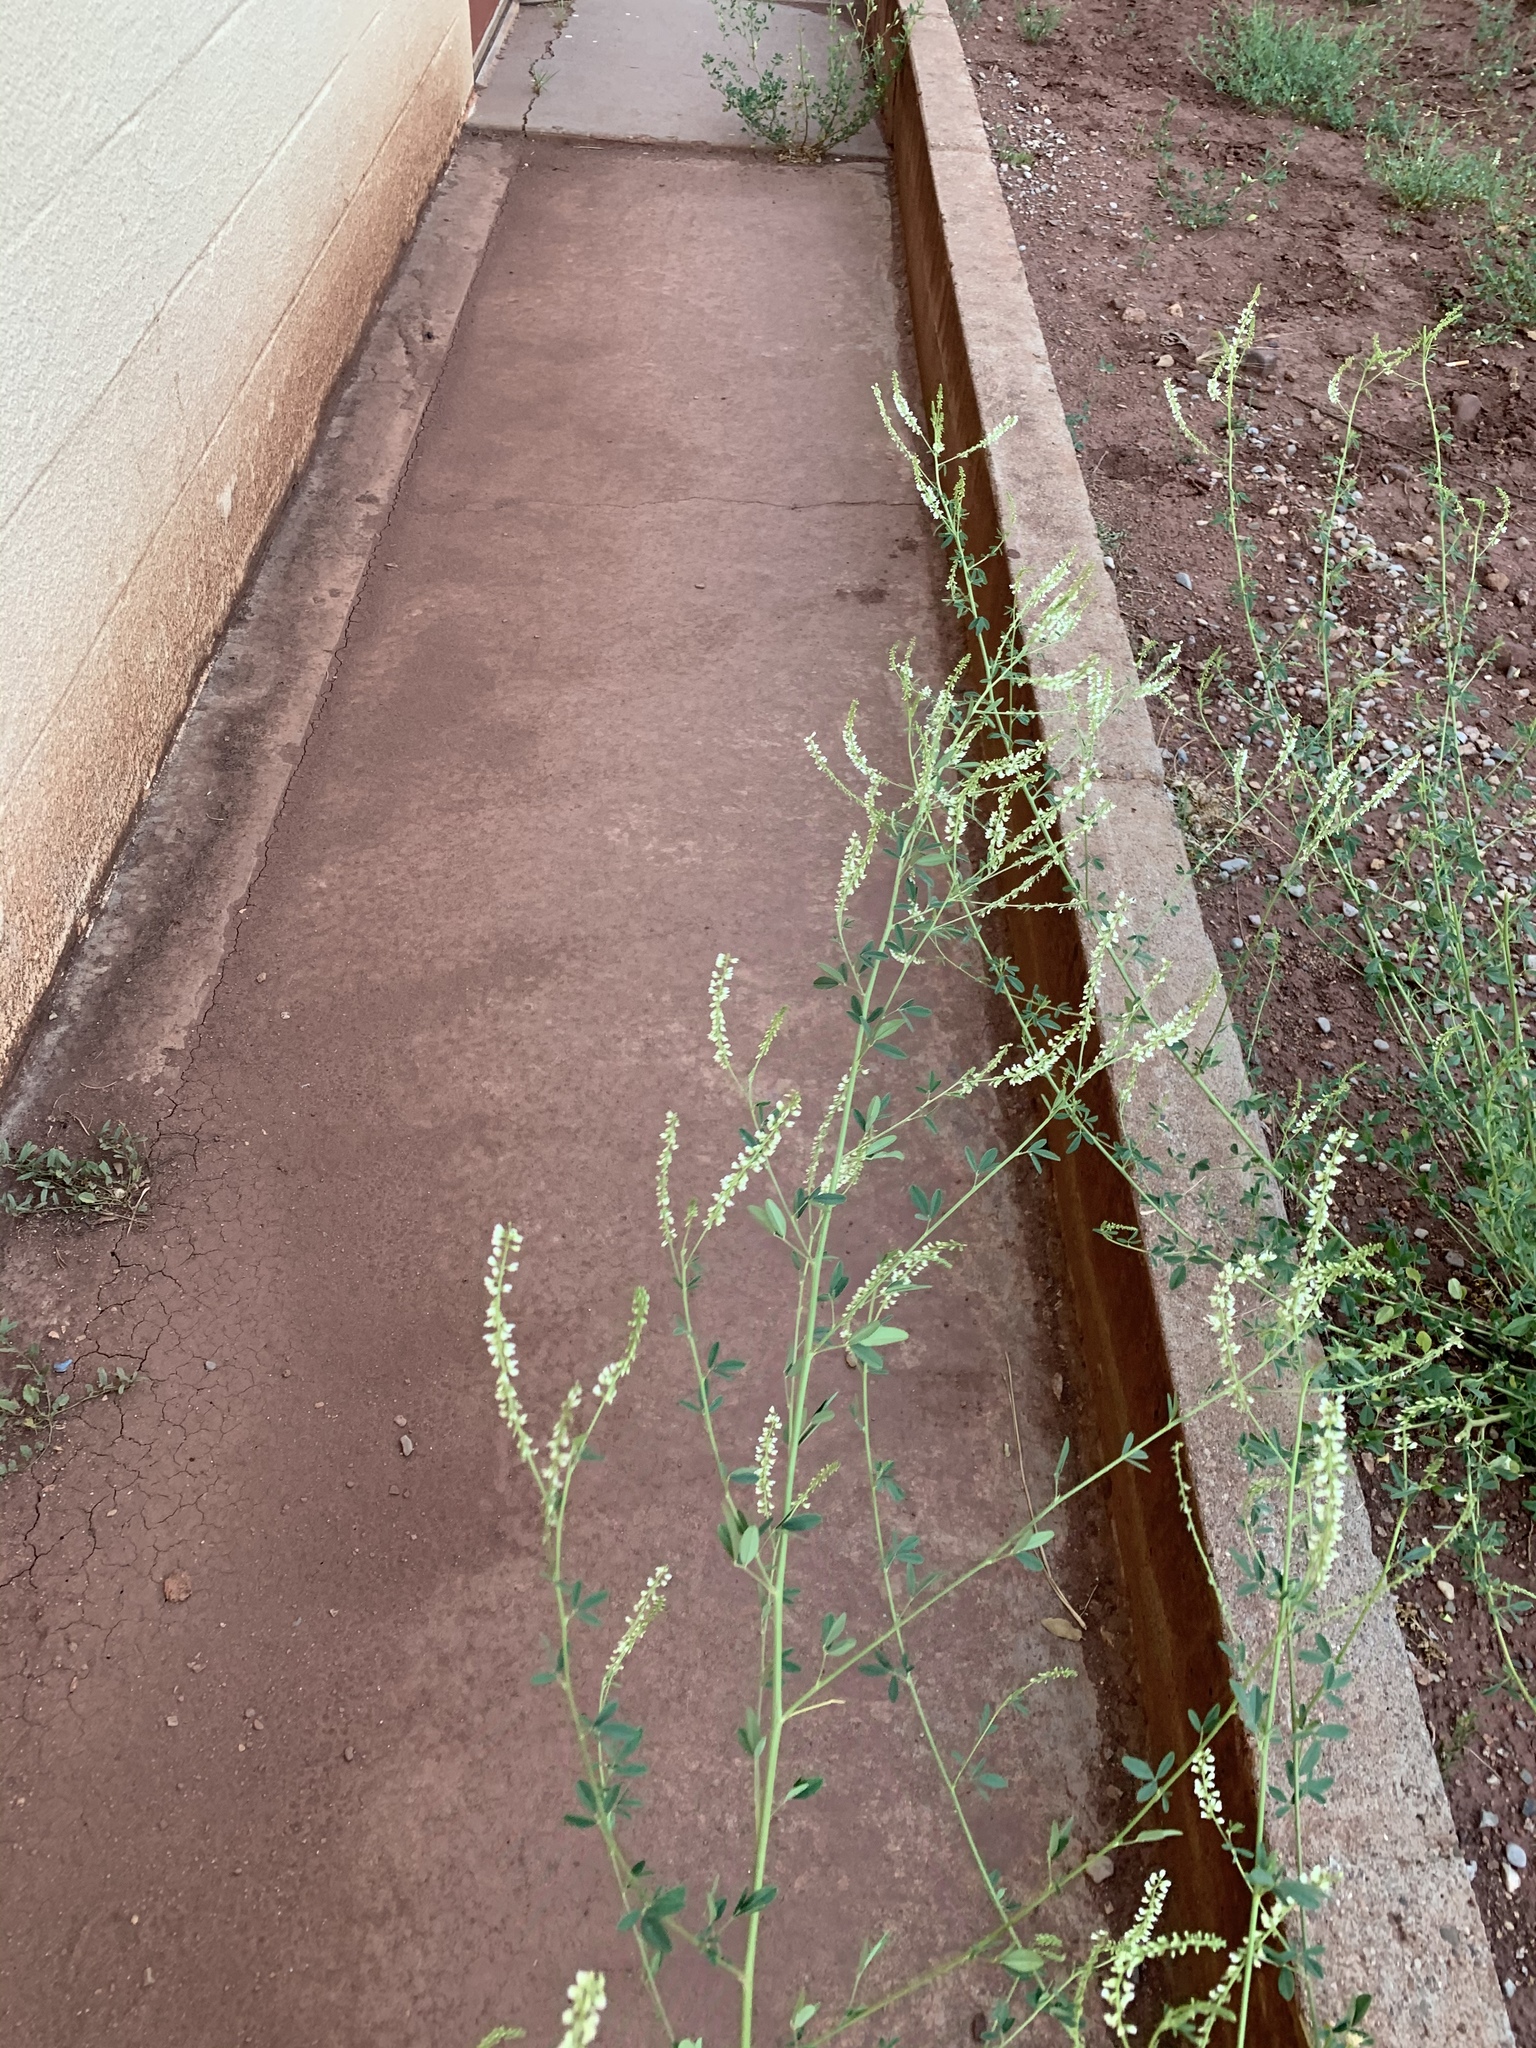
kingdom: Plantae
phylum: Tracheophyta
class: Magnoliopsida
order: Fabales
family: Fabaceae
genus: Melilotus
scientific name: Melilotus albus
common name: White melilot
